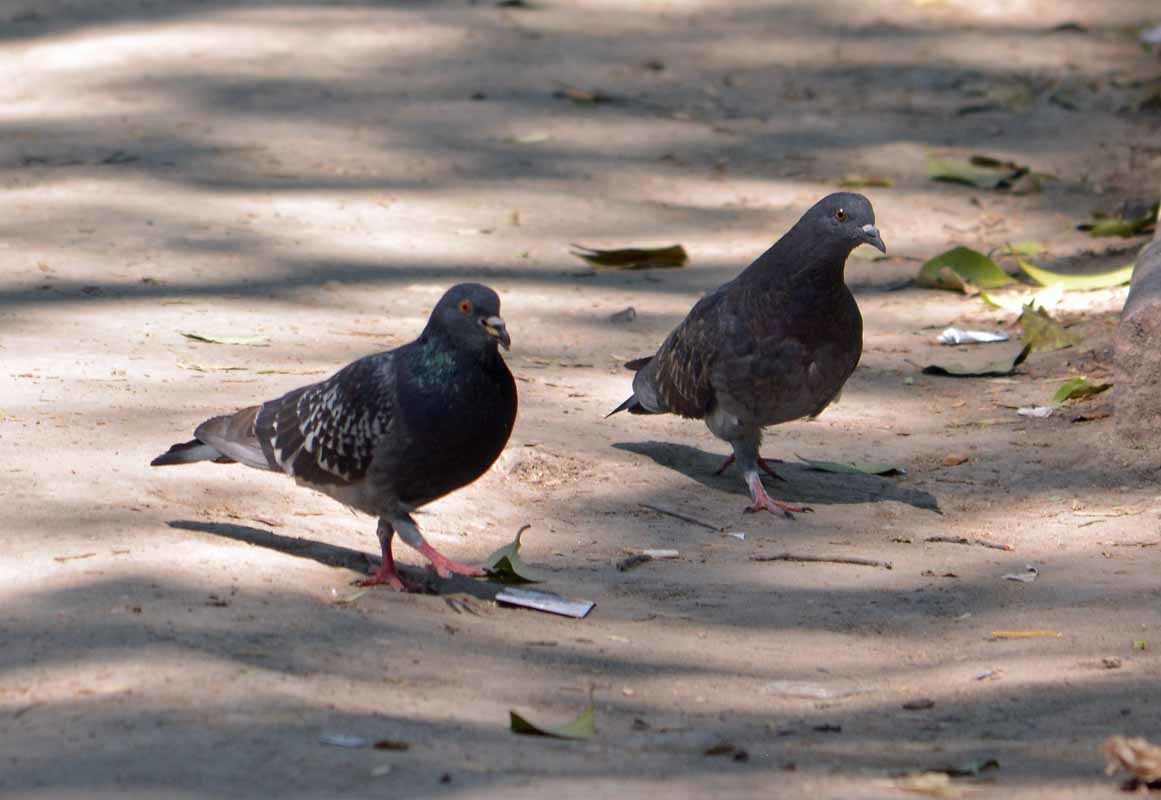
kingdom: Animalia
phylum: Chordata
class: Aves
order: Columbiformes
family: Columbidae
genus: Columba
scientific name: Columba livia
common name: Rock pigeon
